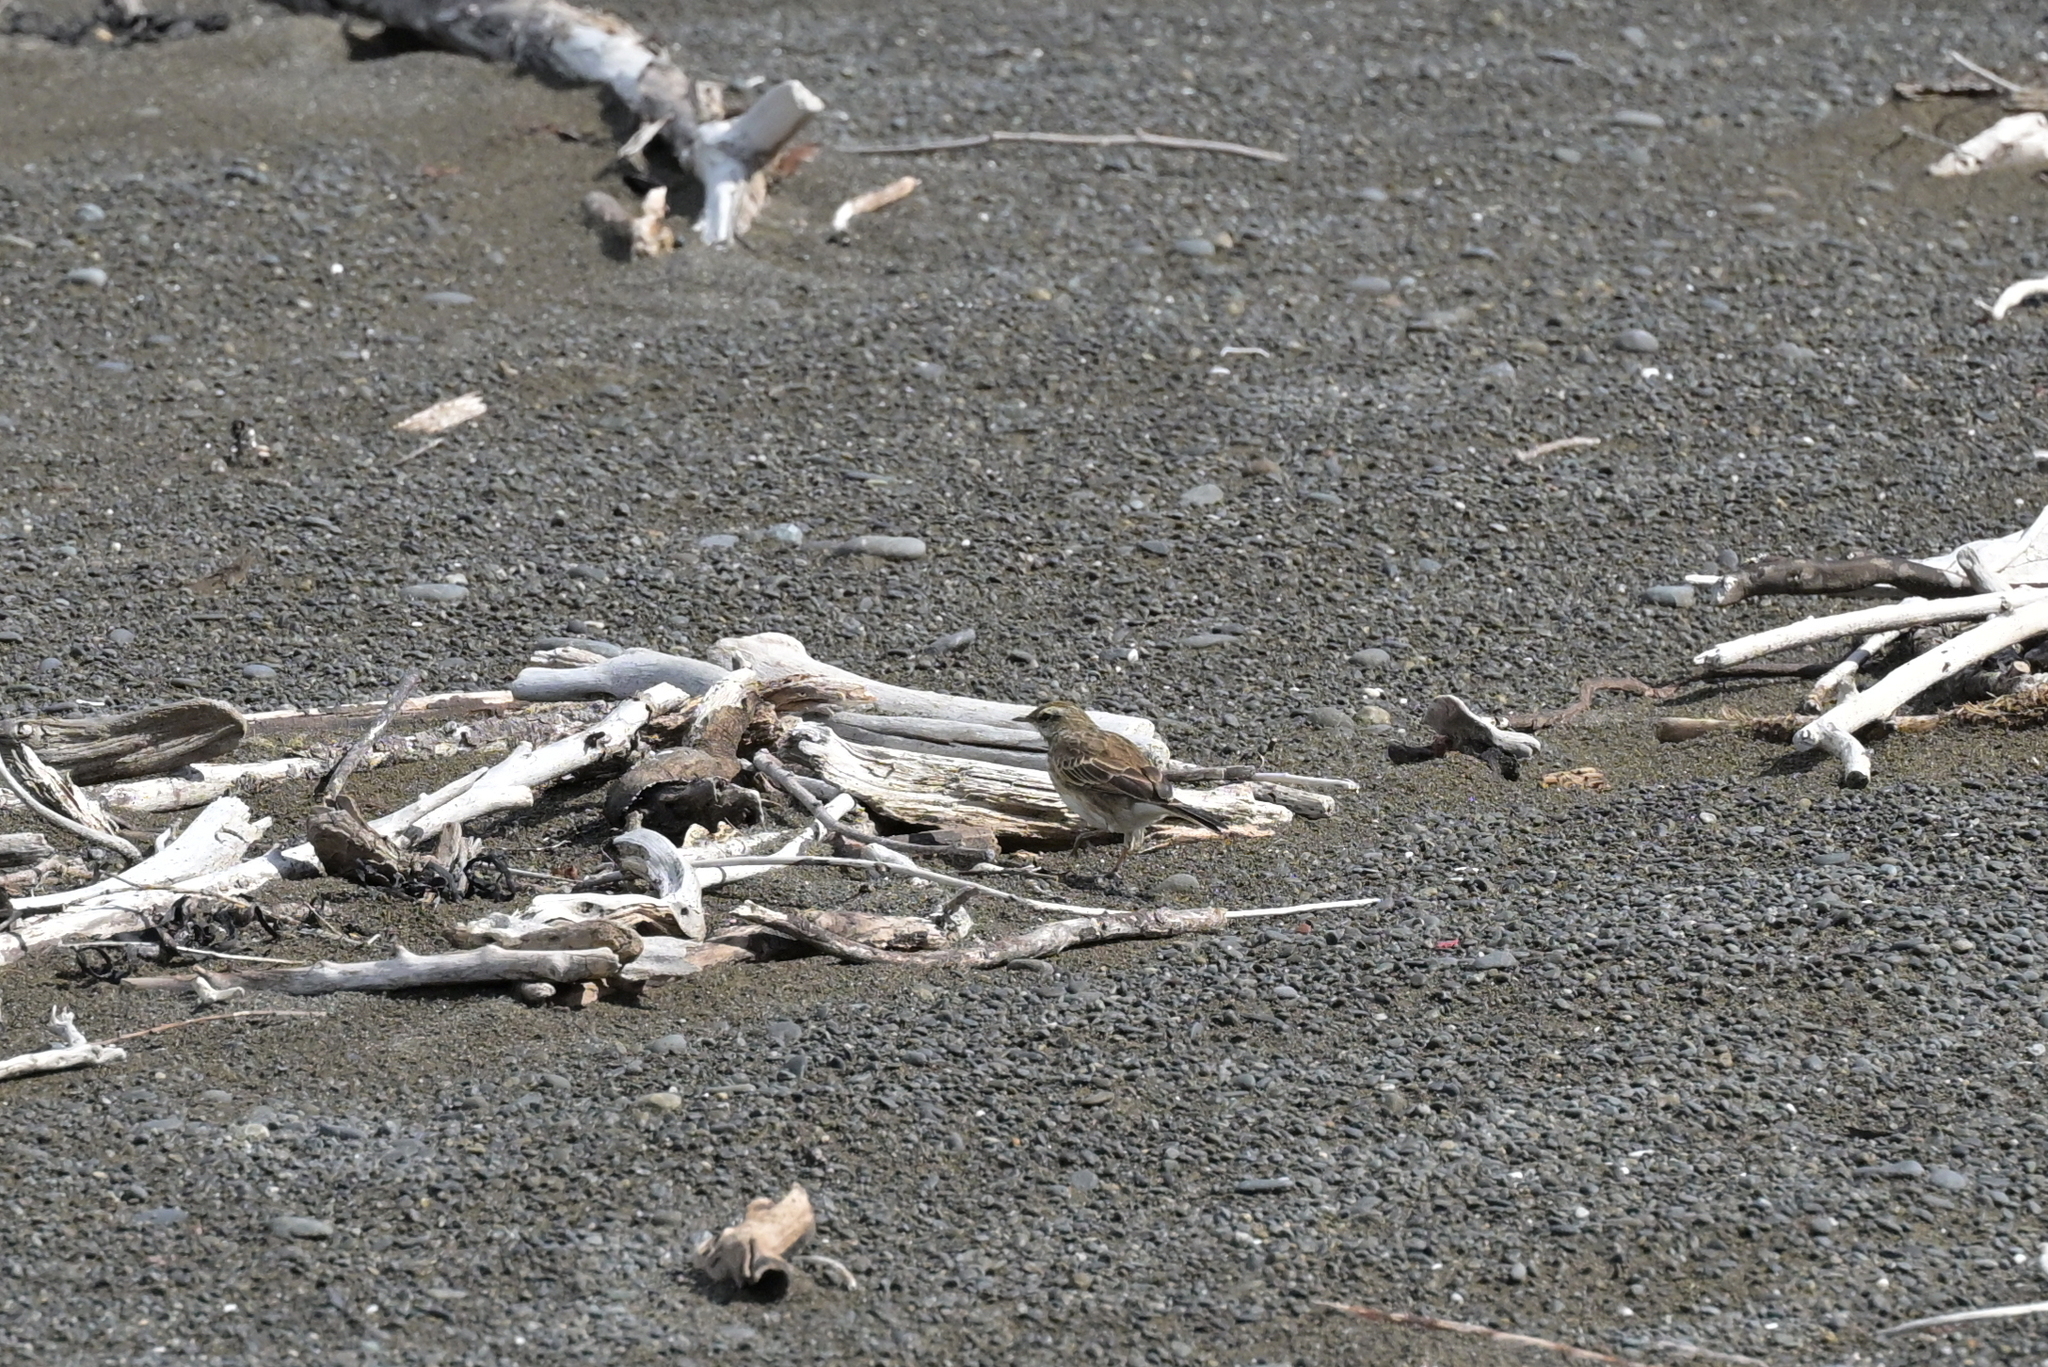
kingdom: Animalia
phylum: Chordata
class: Aves
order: Passeriformes
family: Motacillidae
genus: Anthus
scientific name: Anthus novaeseelandiae
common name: New zealand pipit
